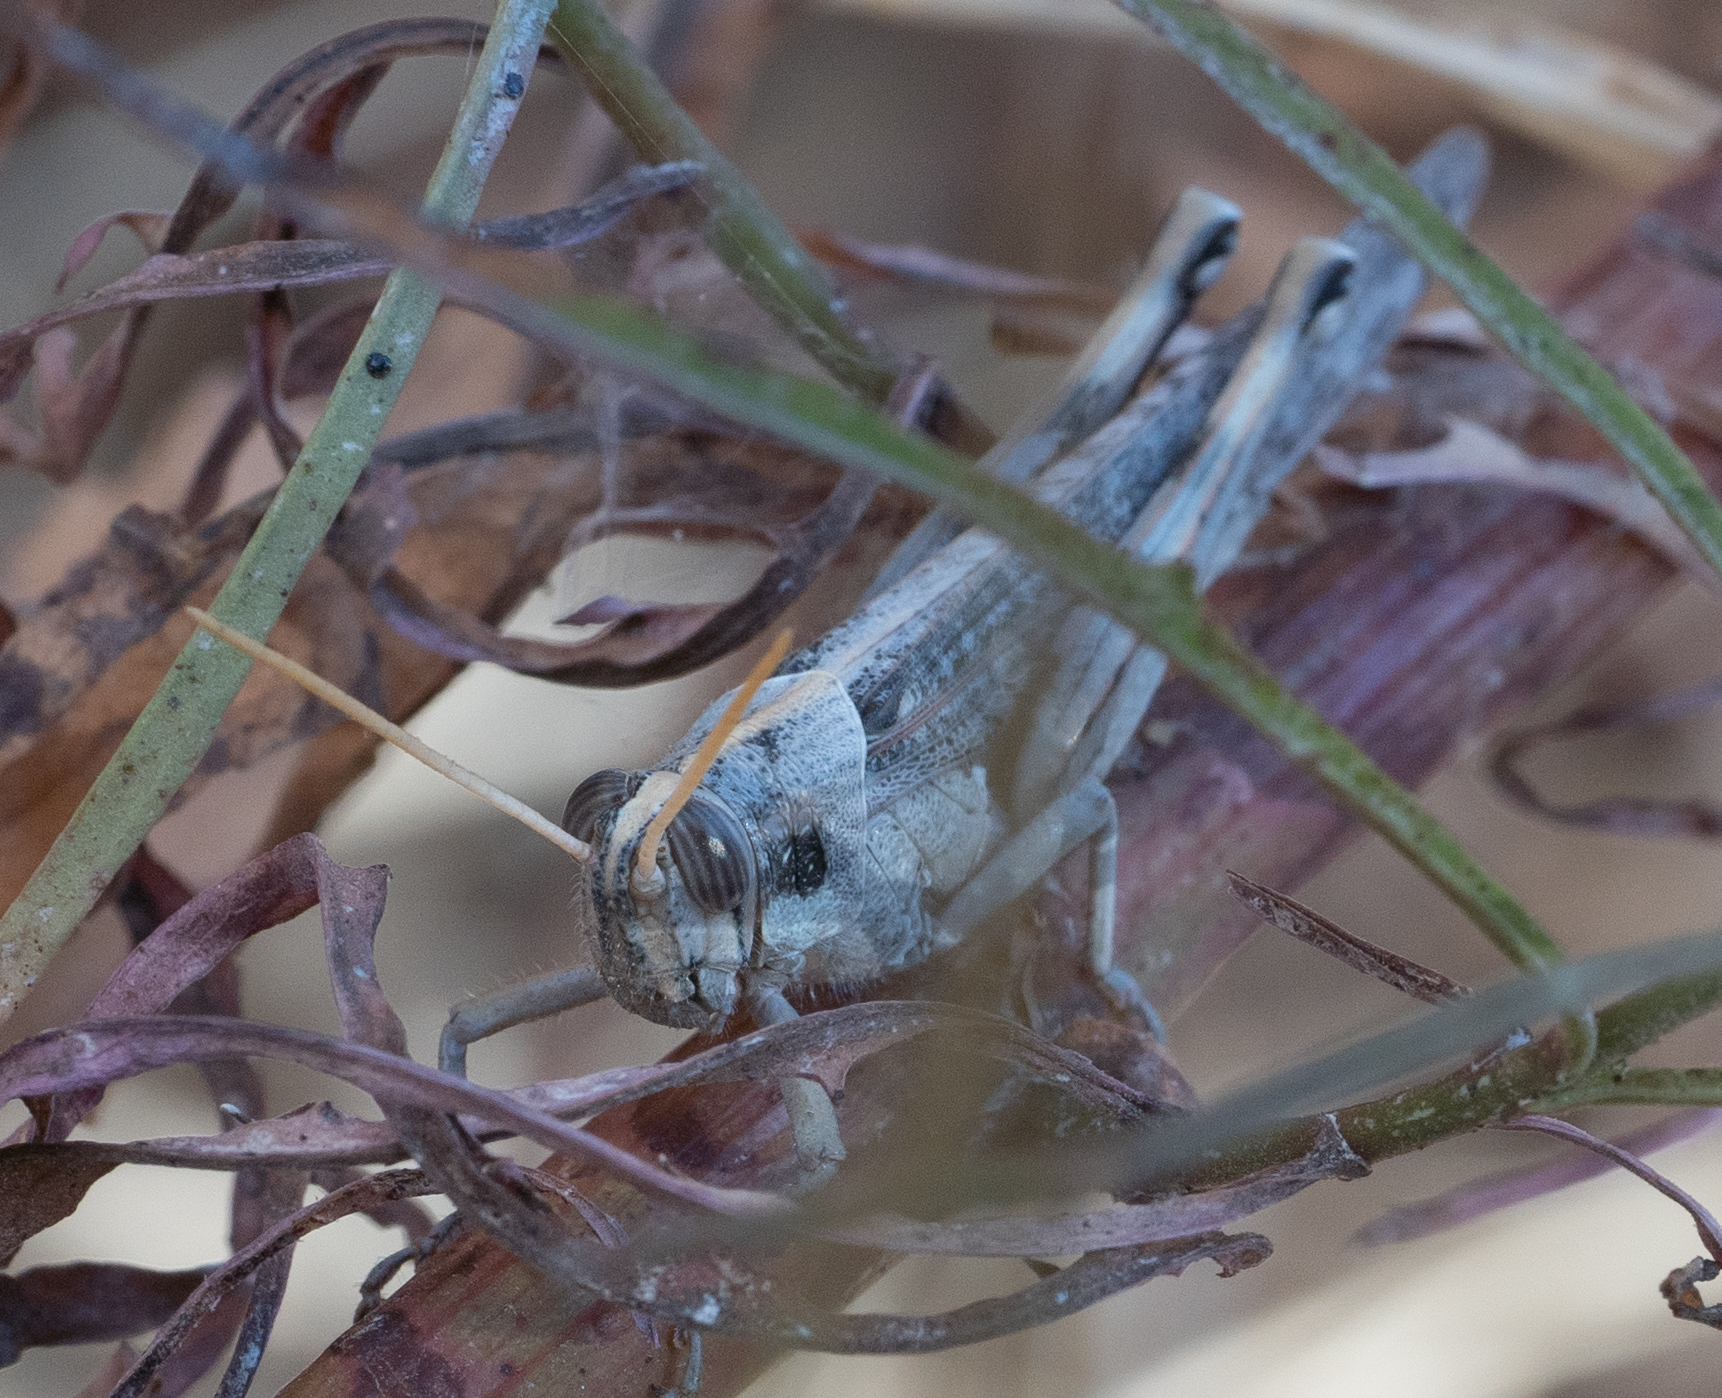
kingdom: Animalia
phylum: Arthropoda
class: Insecta
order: Orthoptera
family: Acrididae
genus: Schistocerca
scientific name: Schistocerca nitens
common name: Vagrant grasshopper
